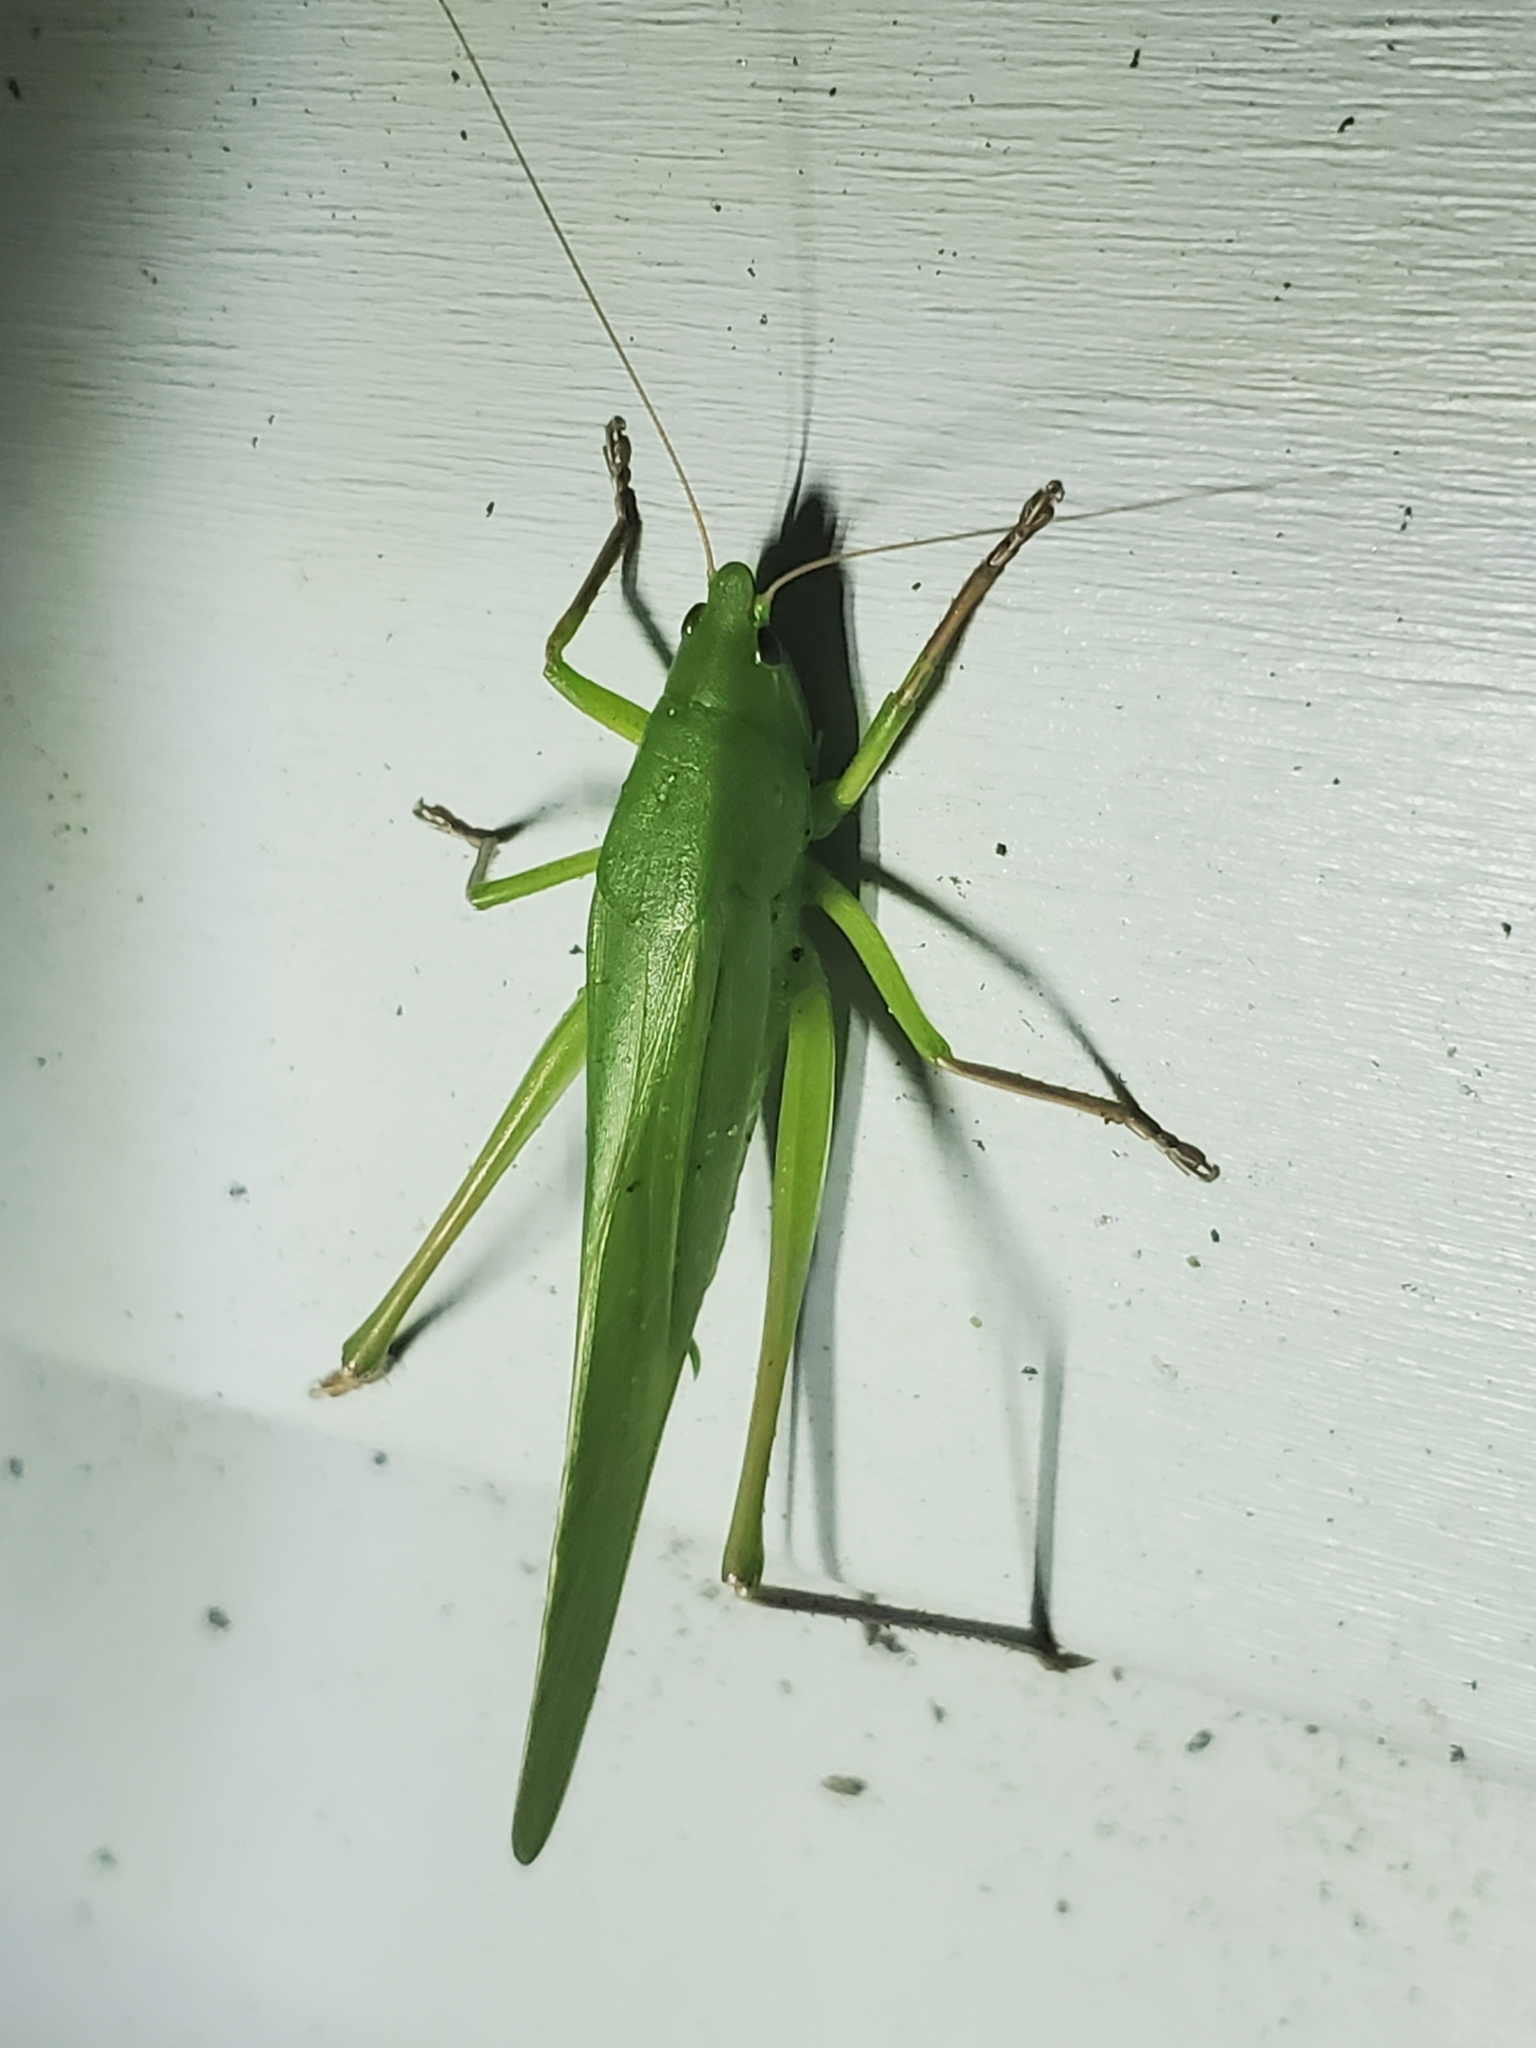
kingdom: Animalia
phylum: Arthropoda
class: Insecta
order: Orthoptera
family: Tettigoniidae
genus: Neoconocephalus
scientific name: Neoconocephalus triops
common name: Broad-tipped conehead
